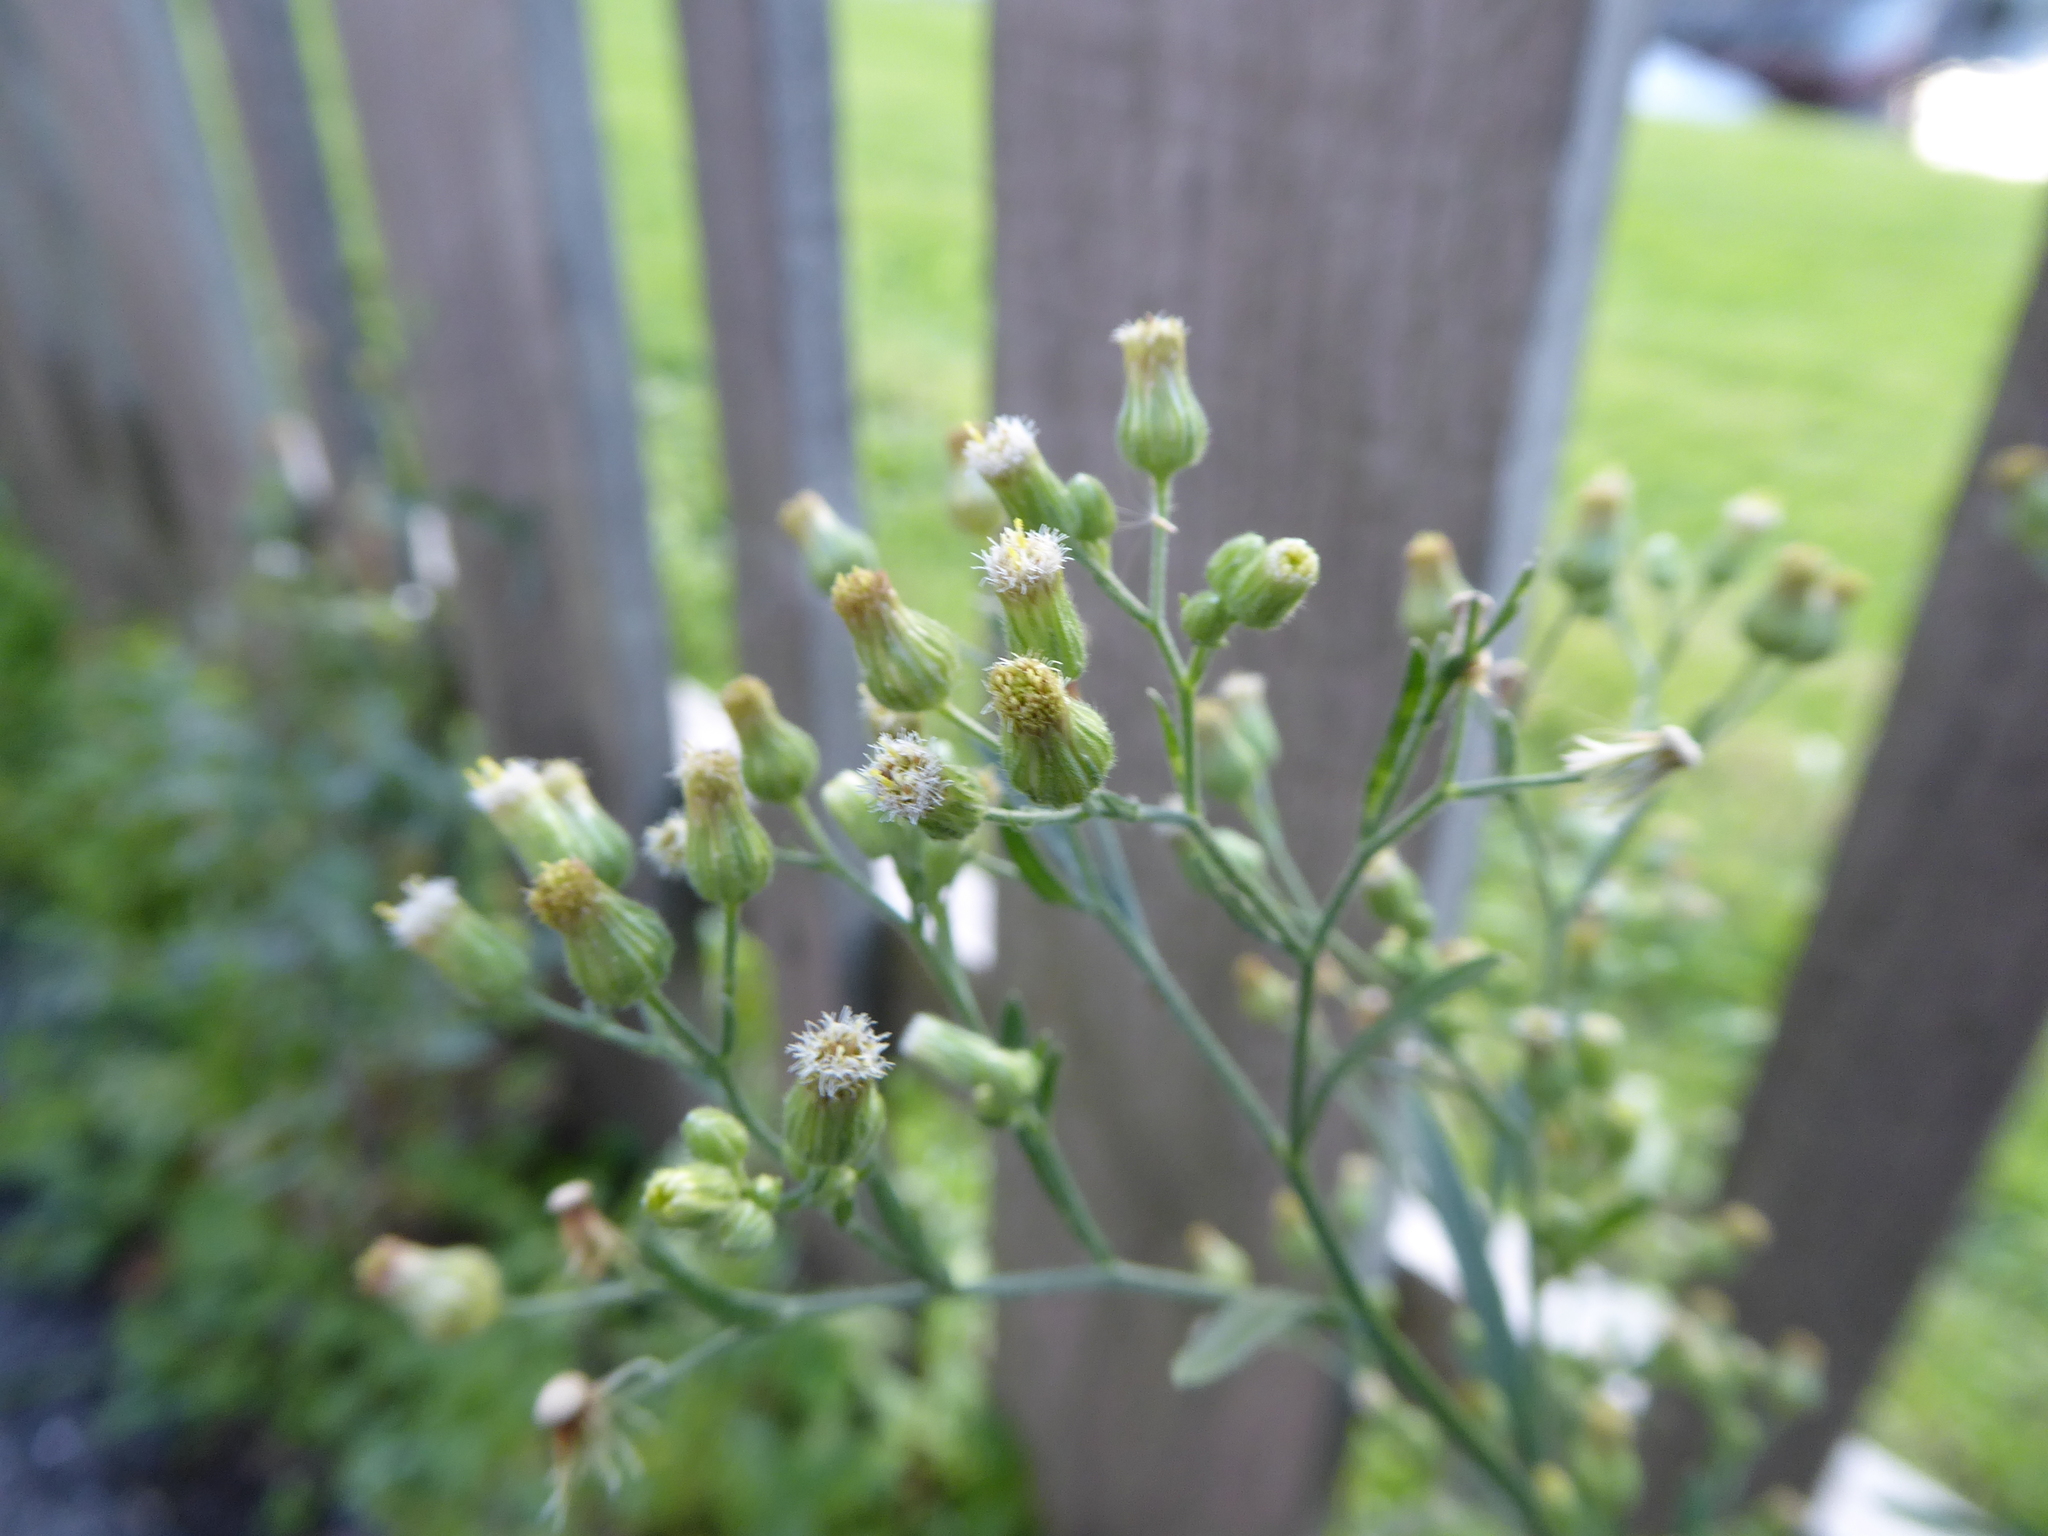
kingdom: Plantae
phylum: Tracheophyta
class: Magnoliopsida
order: Asterales
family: Asteraceae
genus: Erigeron
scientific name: Erigeron sumatrensis
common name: Daisy
